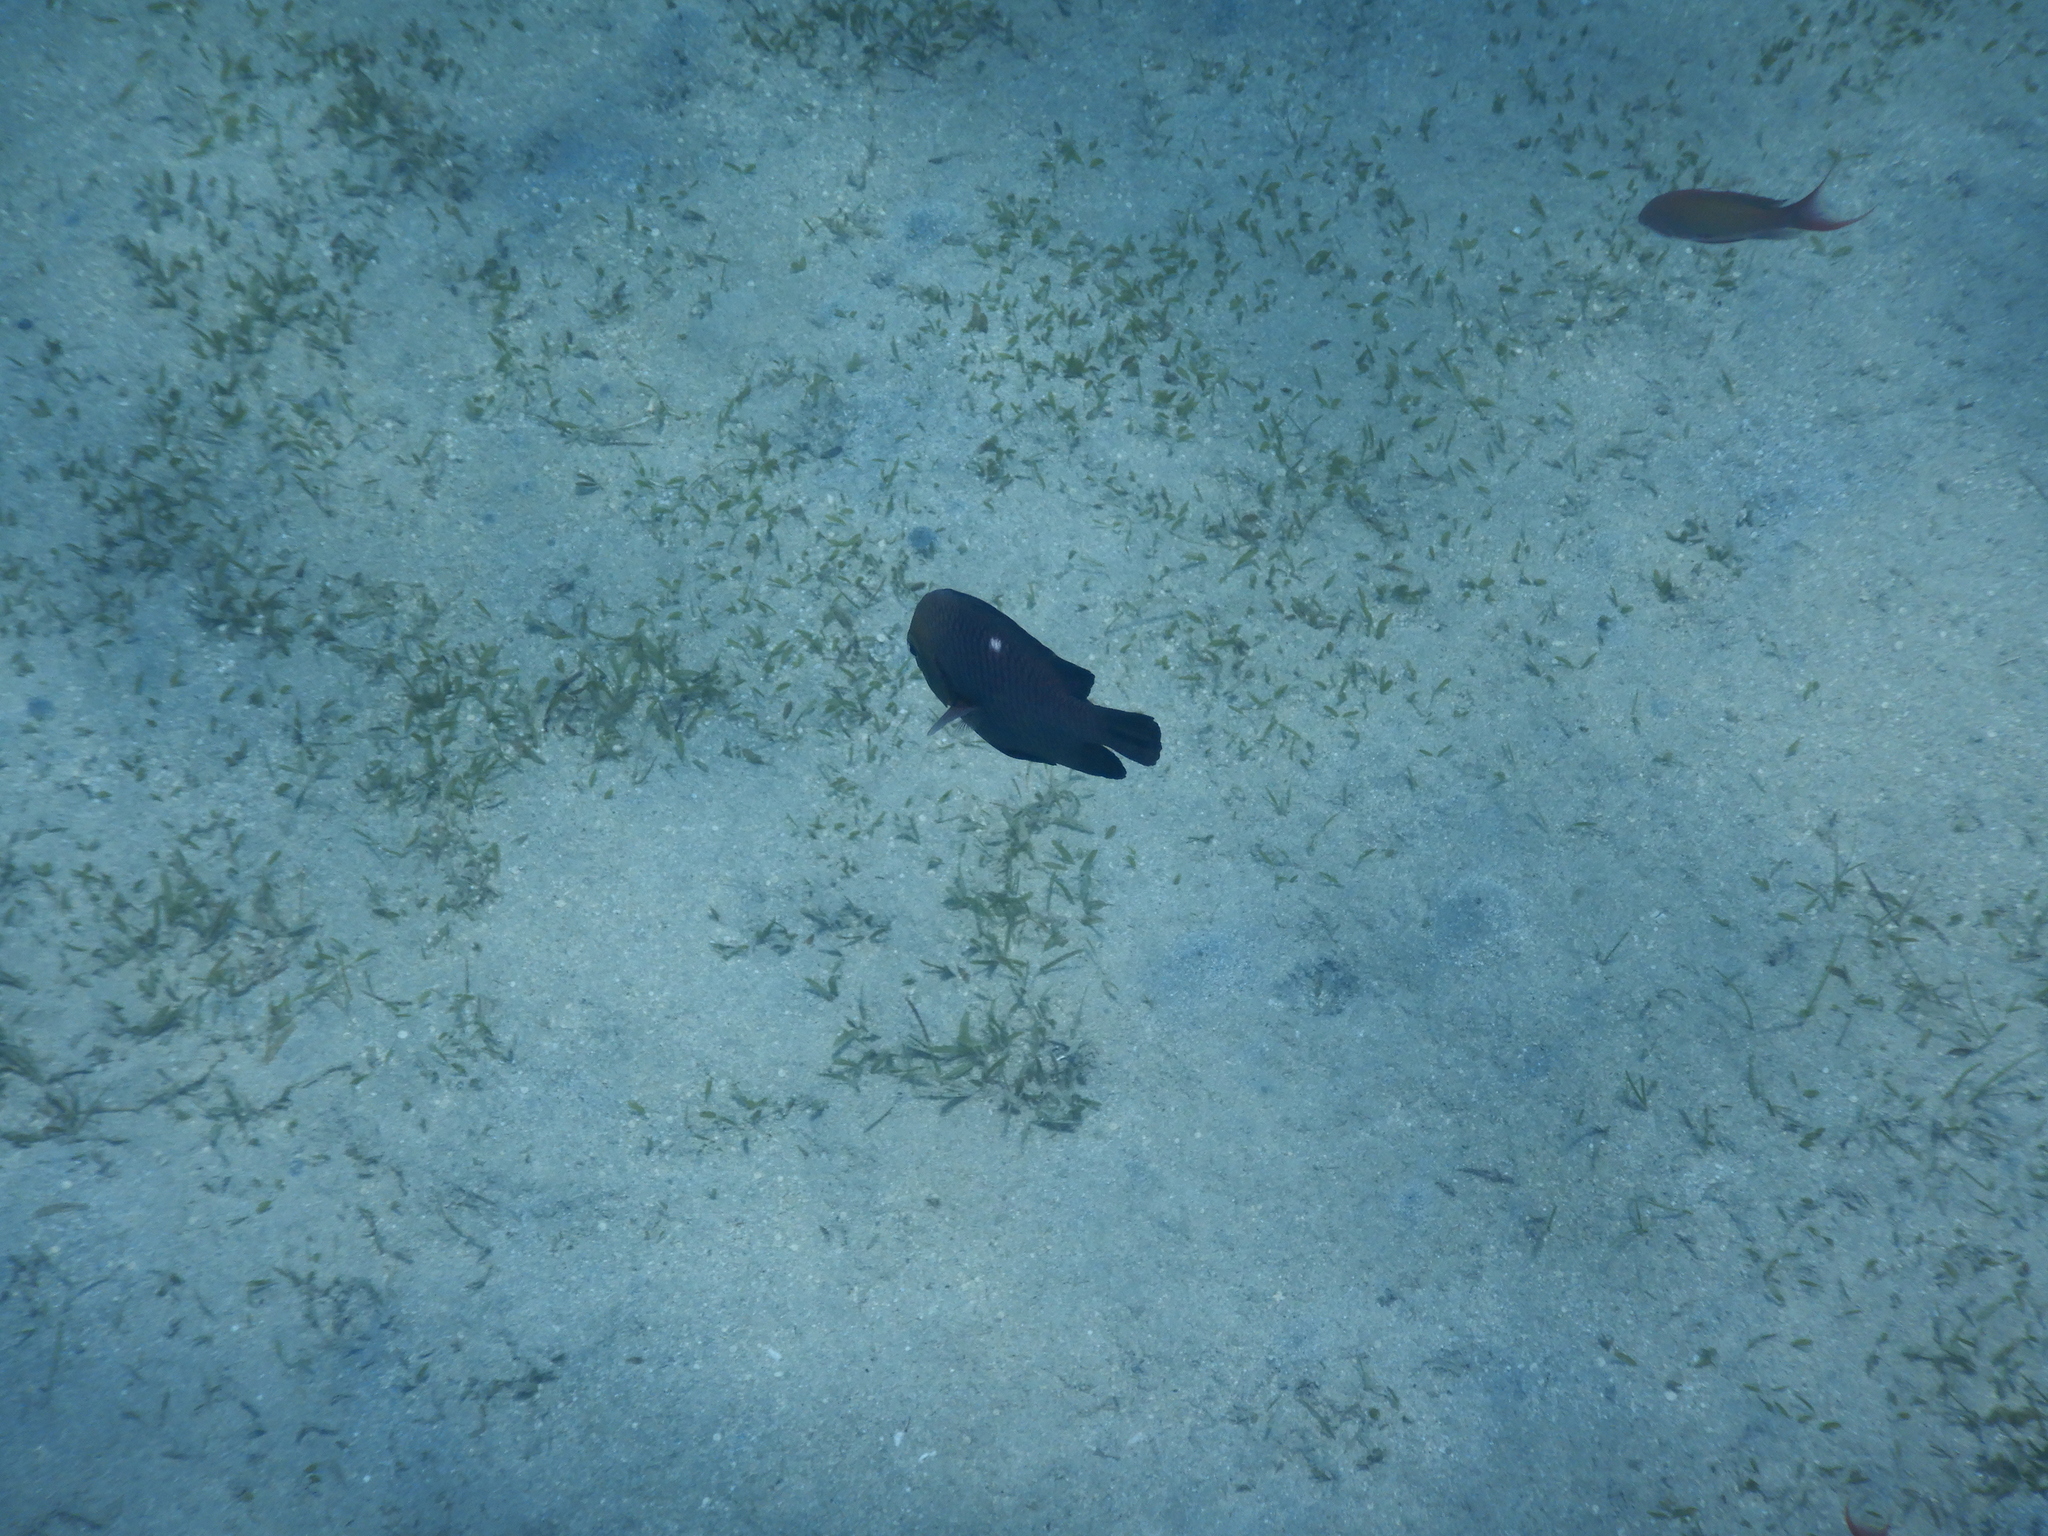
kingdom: Animalia
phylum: Chordata
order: Perciformes
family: Pomacentridae
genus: Dascyllus
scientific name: Dascyllus trimaculatus
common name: Threespot dascyllus
